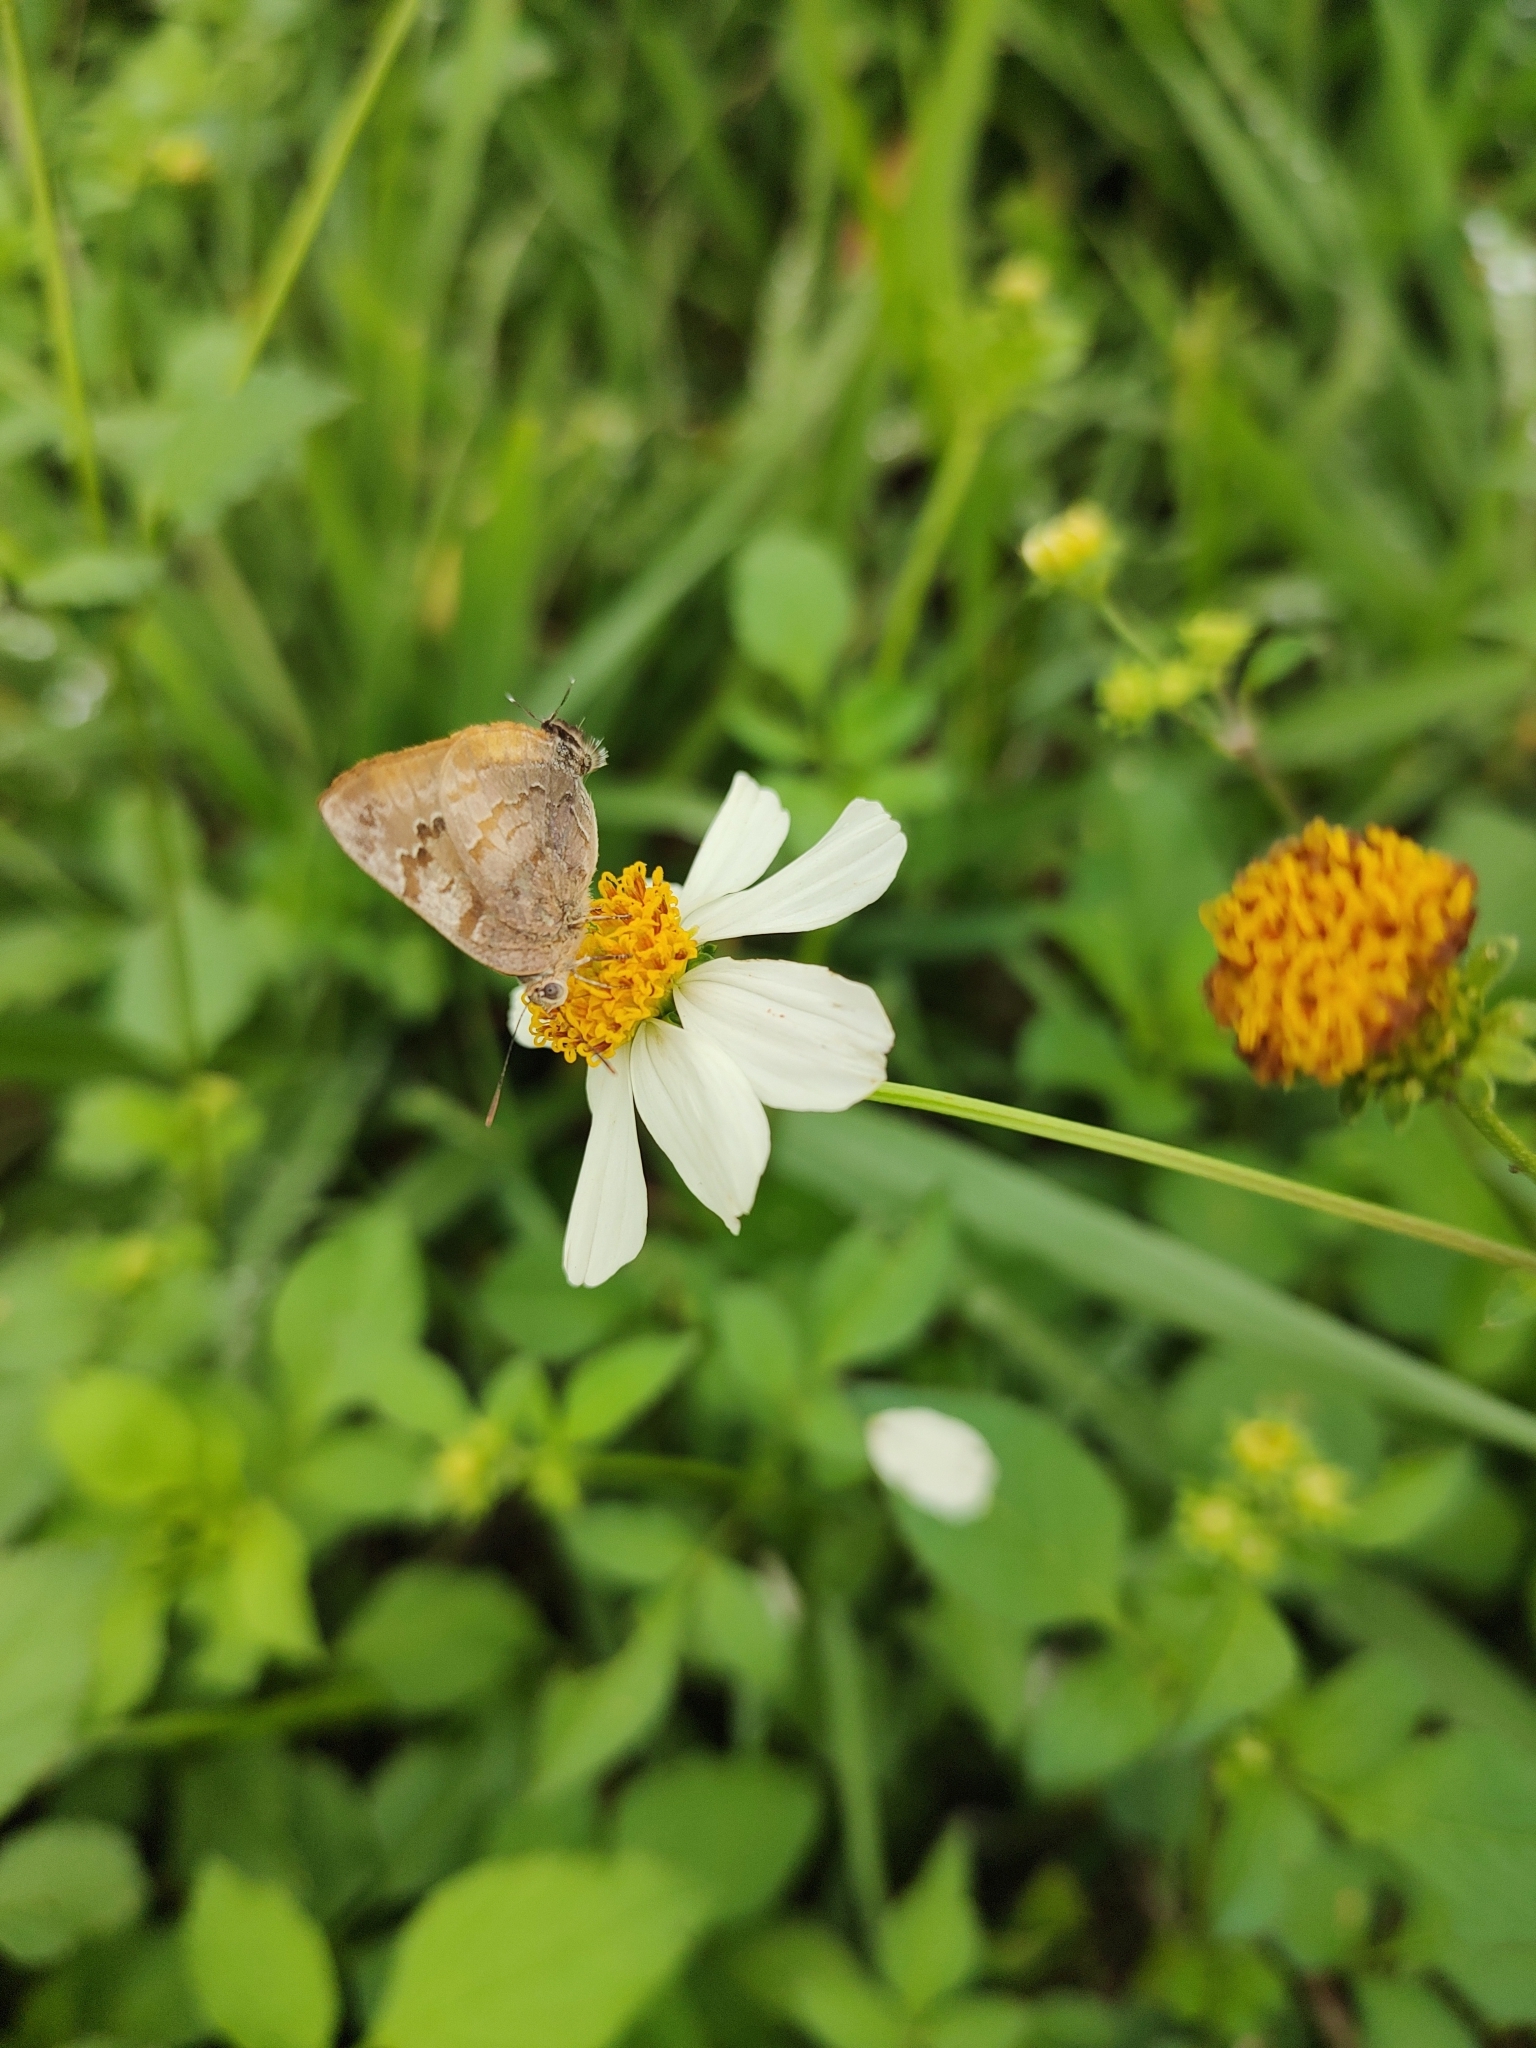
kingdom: Animalia
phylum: Arthropoda
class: Insecta
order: Lepidoptera
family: Lycaenidae
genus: Rekoa
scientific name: Rekoa palegon
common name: Gold-bordered hairstreak
